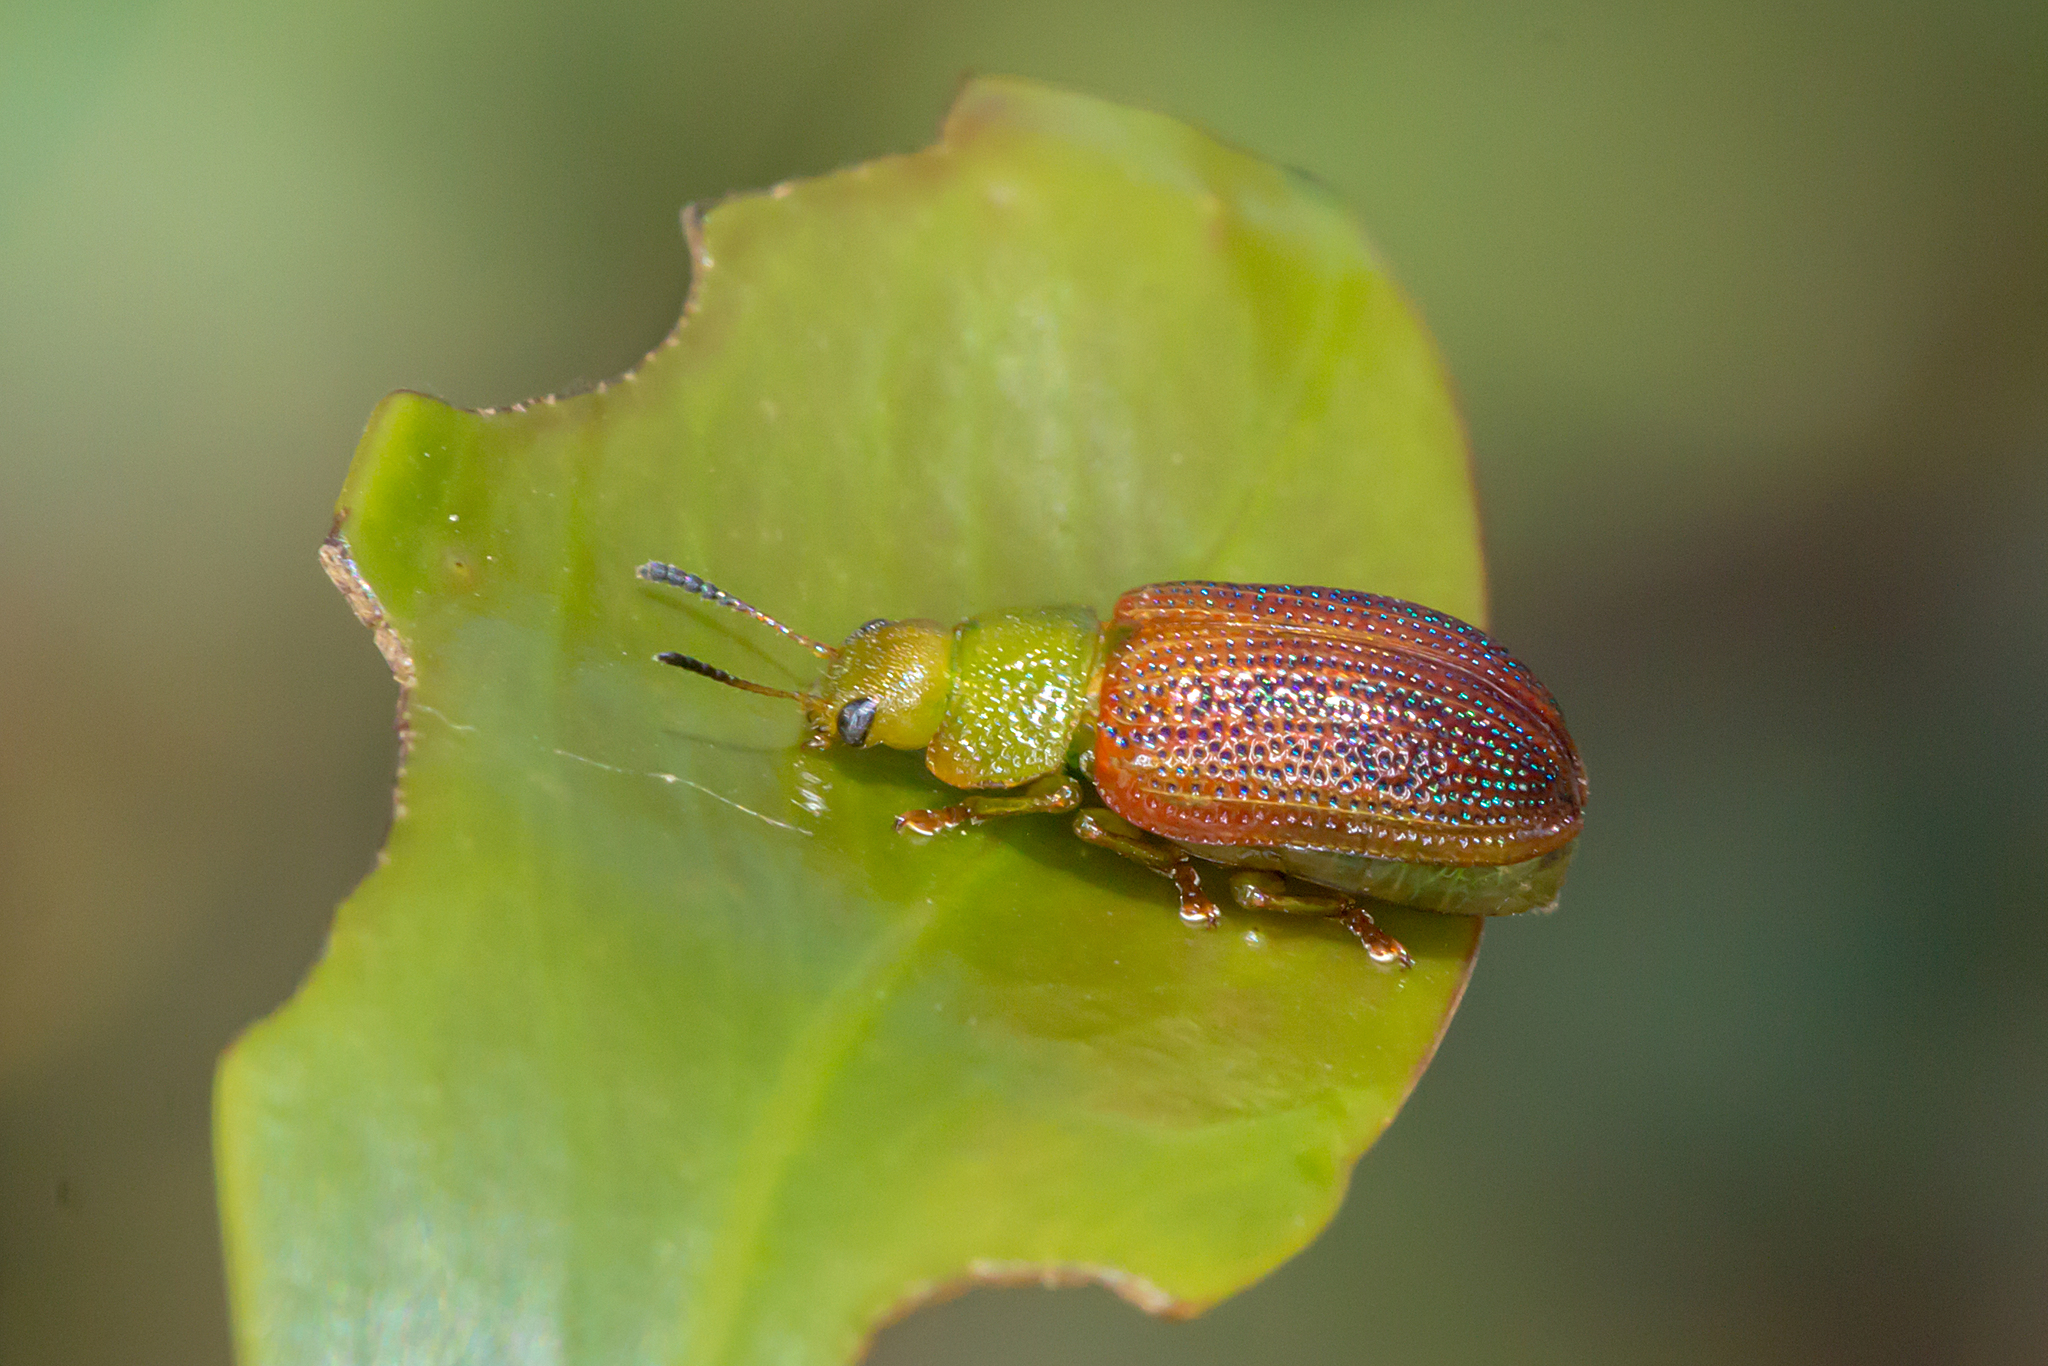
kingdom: Animalia
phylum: Arthropoda
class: Insecta
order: Coleoptera
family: Chrysomelidae
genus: Calomela
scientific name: Calomela
